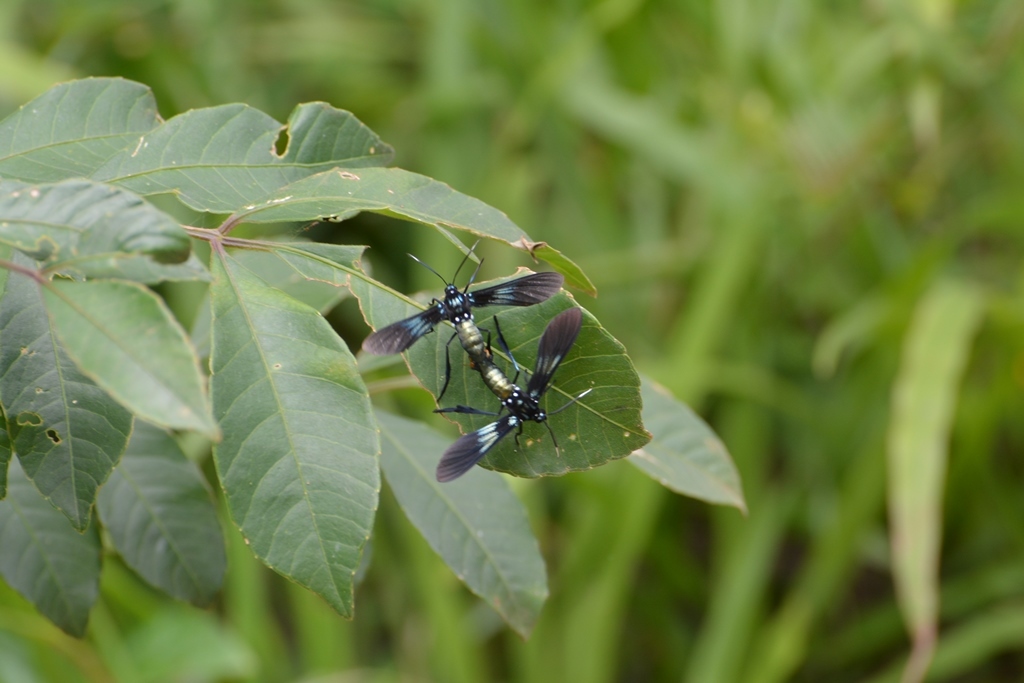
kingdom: Animalia
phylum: Arthropoda
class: Insecta
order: Lepidoptera
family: Erebidae
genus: Macrocneme
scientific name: Macrocneme chrysitis
